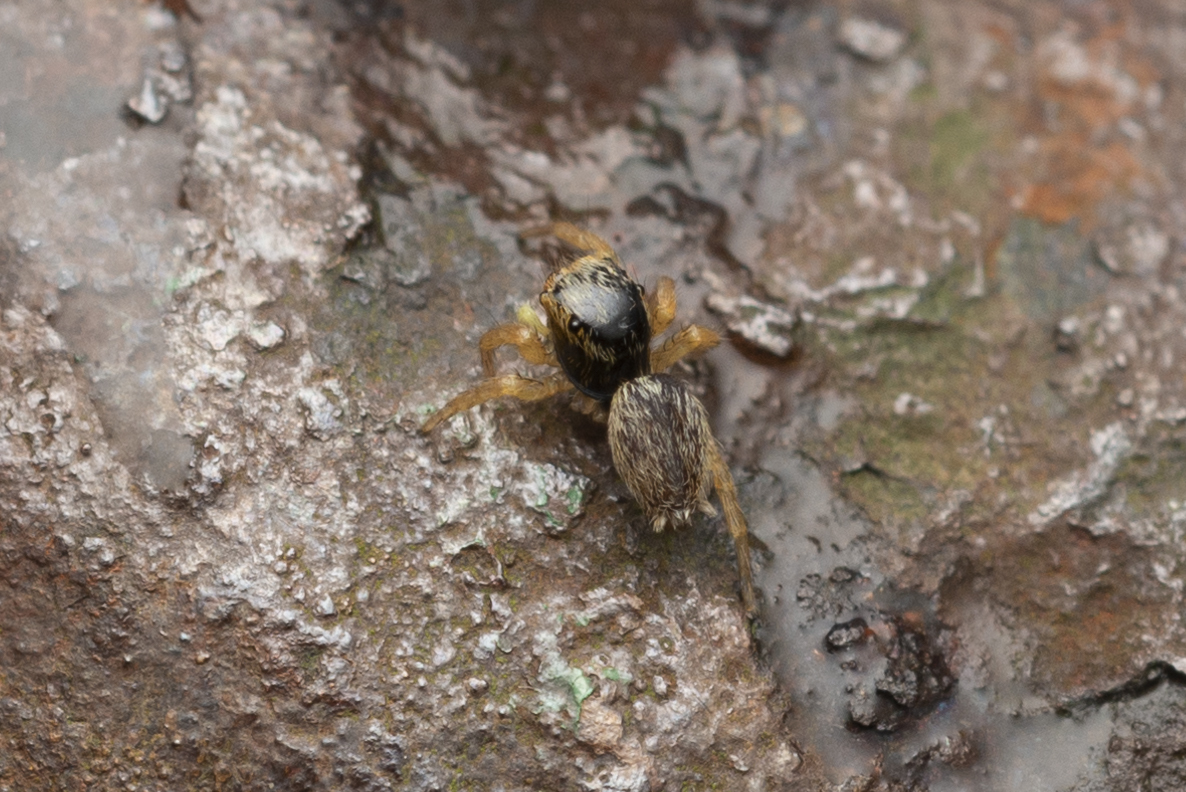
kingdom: Animalia
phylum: Arthropoda
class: Arachnida
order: Araneae
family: Salticidae
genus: Carrhotus
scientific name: Carrhotus sannio
